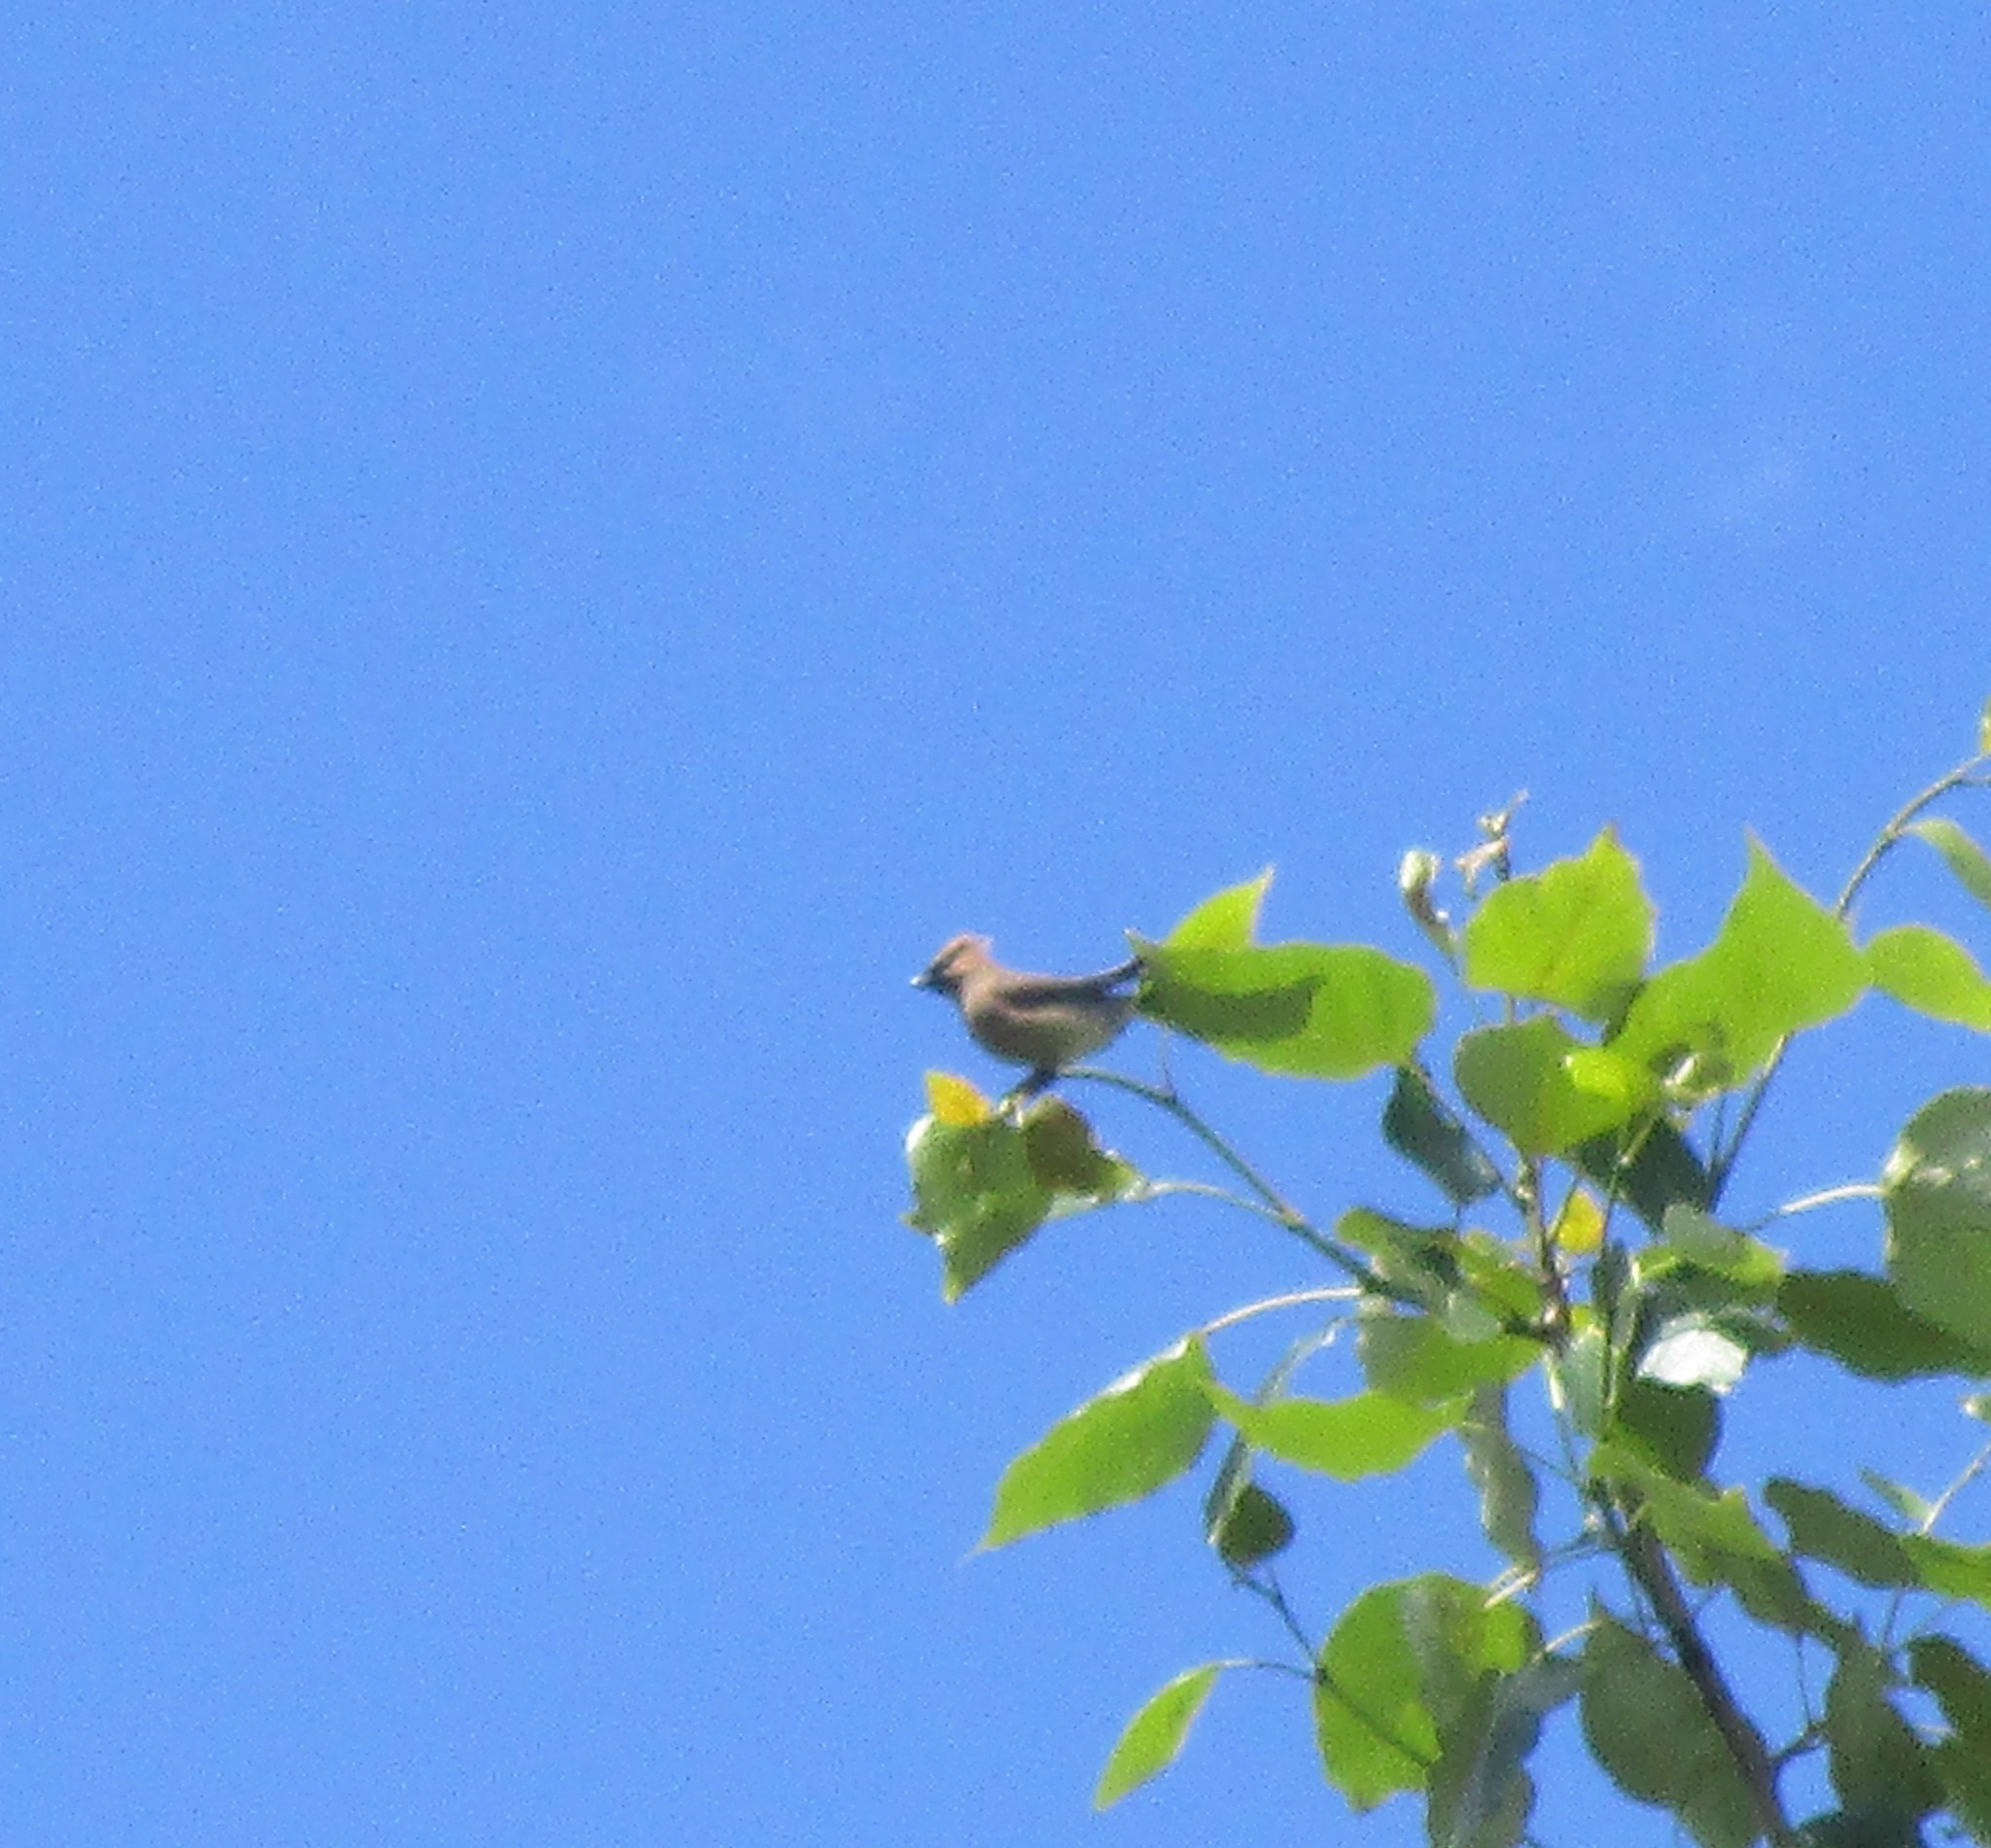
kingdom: Animalia
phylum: Chordata
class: Aves
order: Passeriformes
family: Bombycillidae
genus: Bombycilla
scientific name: Bombycilla cedrorum
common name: Cedar waxwing
